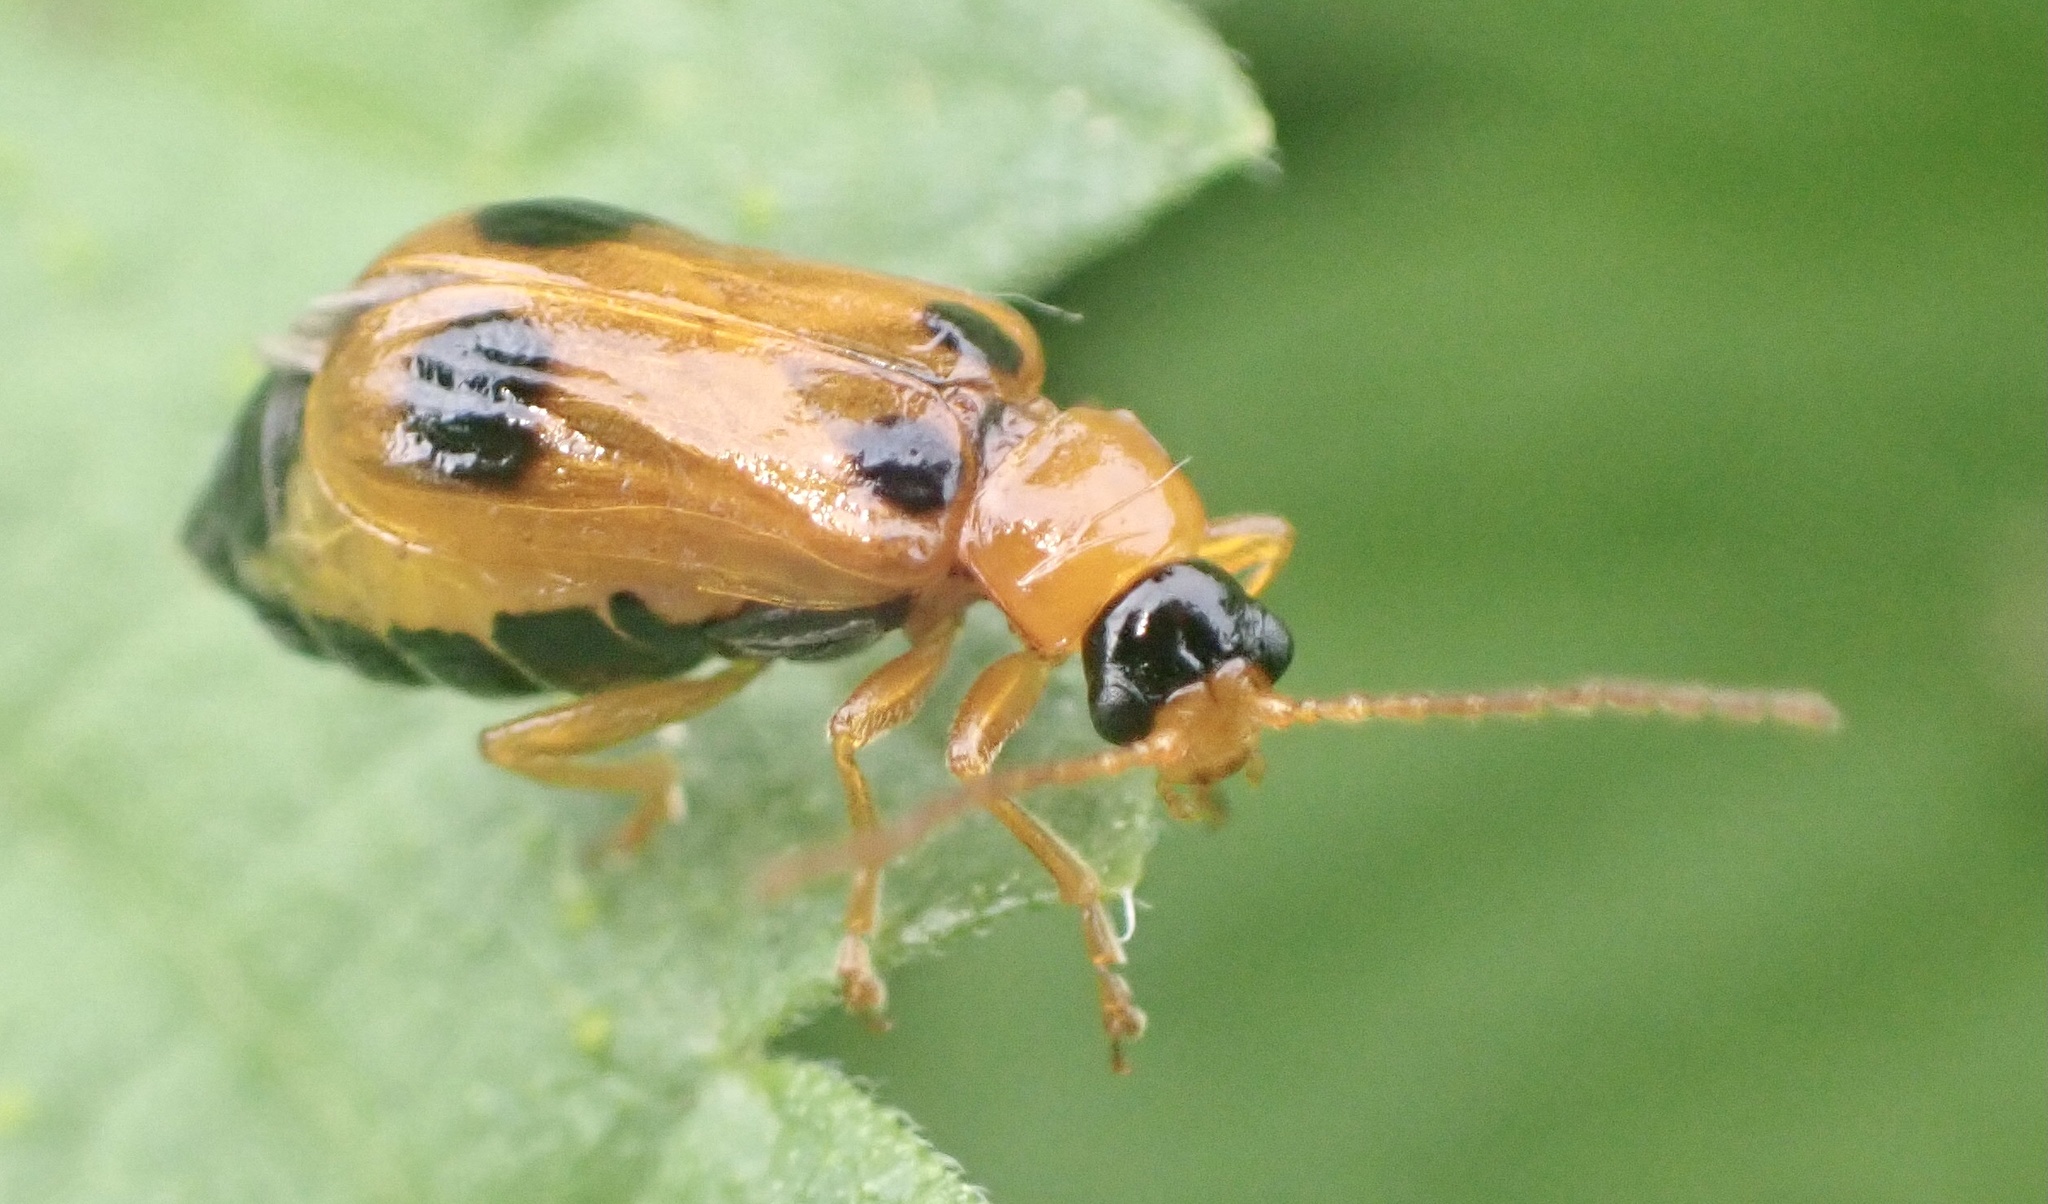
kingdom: Animalia
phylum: Arthropoda
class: Insecta
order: Coleoptera
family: Chrysomelidae
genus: Phyllobrotica
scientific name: Phyllobrotica quadrimaculata
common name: Skullcap leaf beetle
